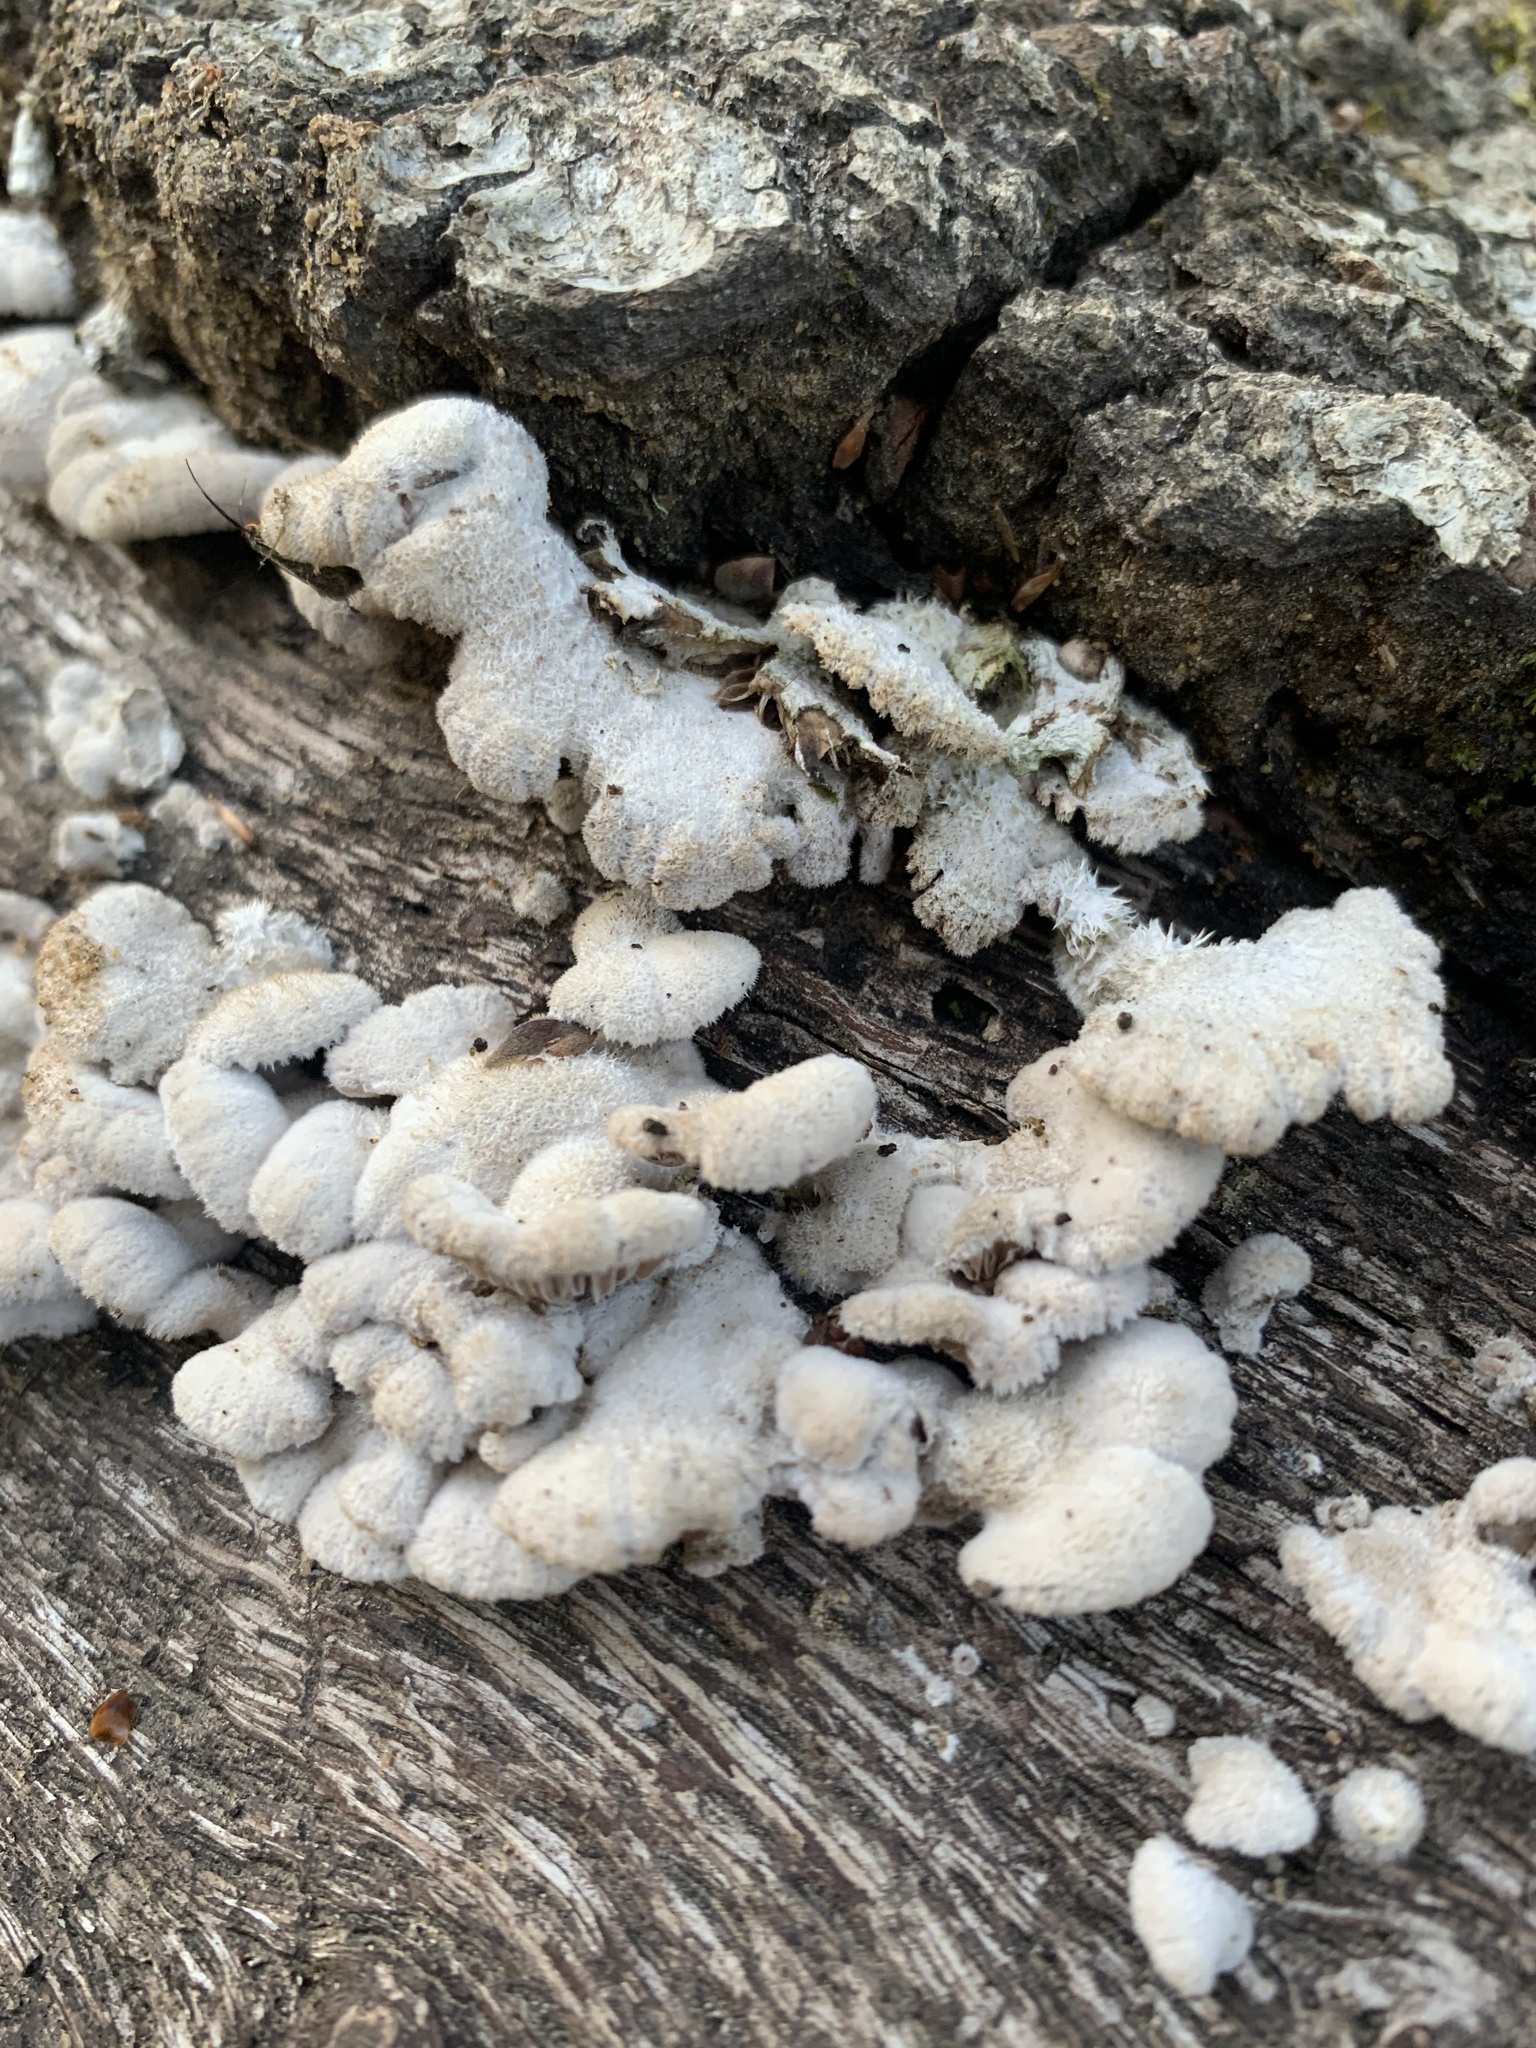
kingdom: Fungi
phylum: Basidiomycota
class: Agaricomycetes
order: Agaricales
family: Schizophyllaceae
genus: Schizophyllum
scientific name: Schizophyllum commune
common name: Common porecrust
